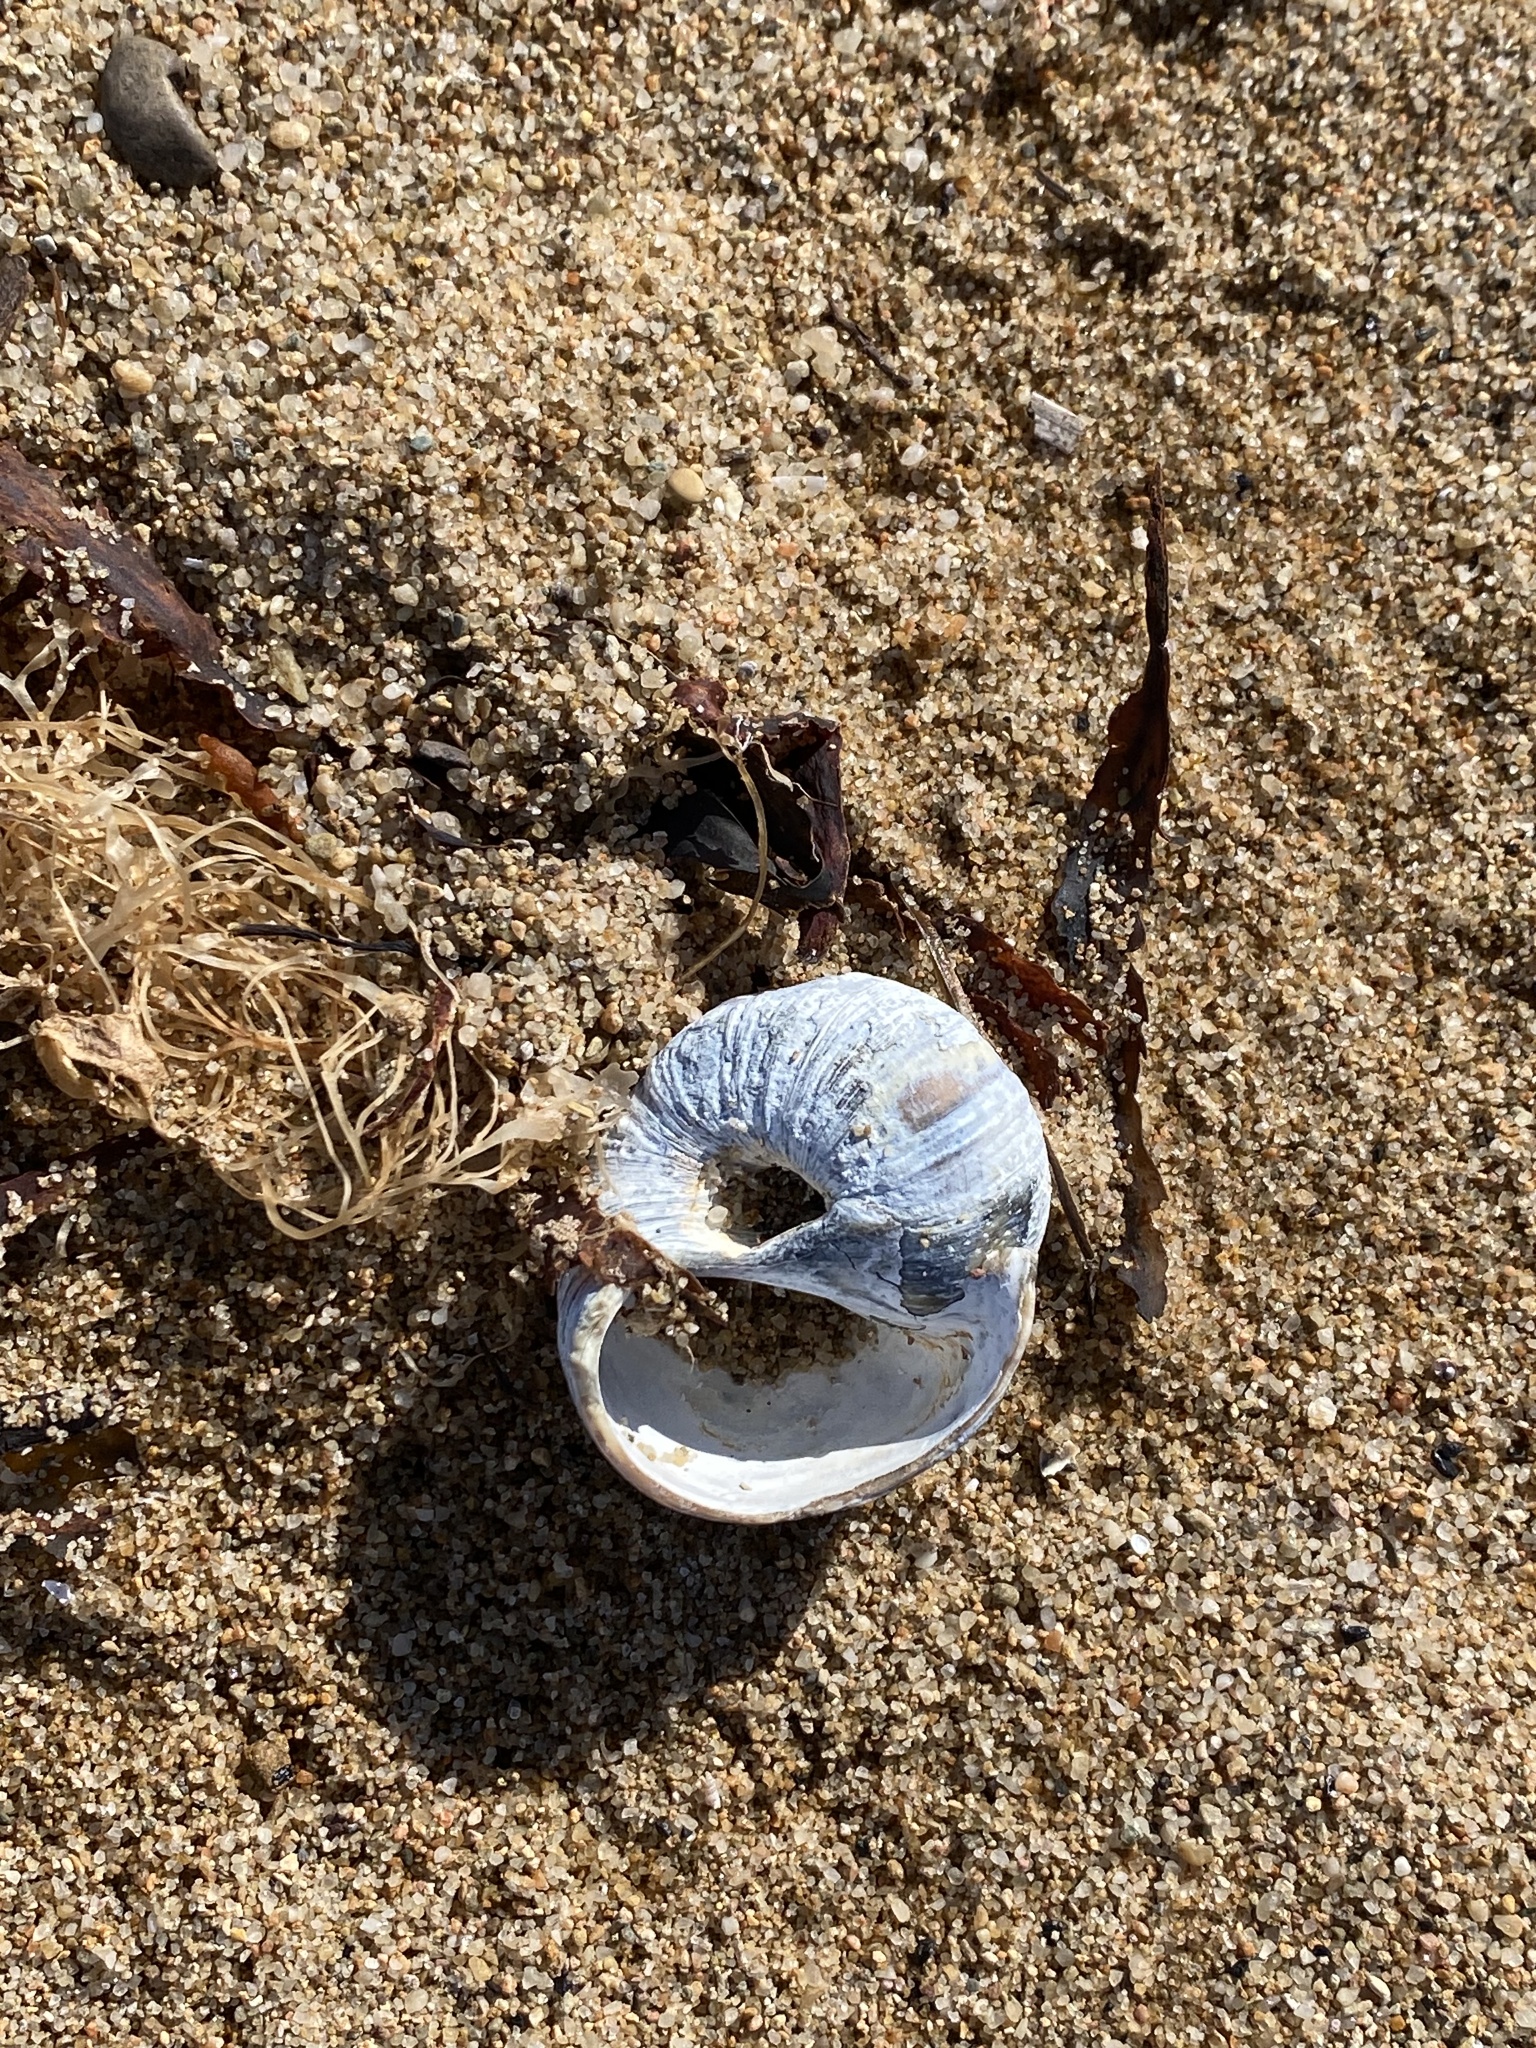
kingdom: Animalia
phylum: Mollusca
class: Gastropoda
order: Littorinimorpha
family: Naticidae
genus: Euspira
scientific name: Euspira heros
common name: Common northern moonsnail
